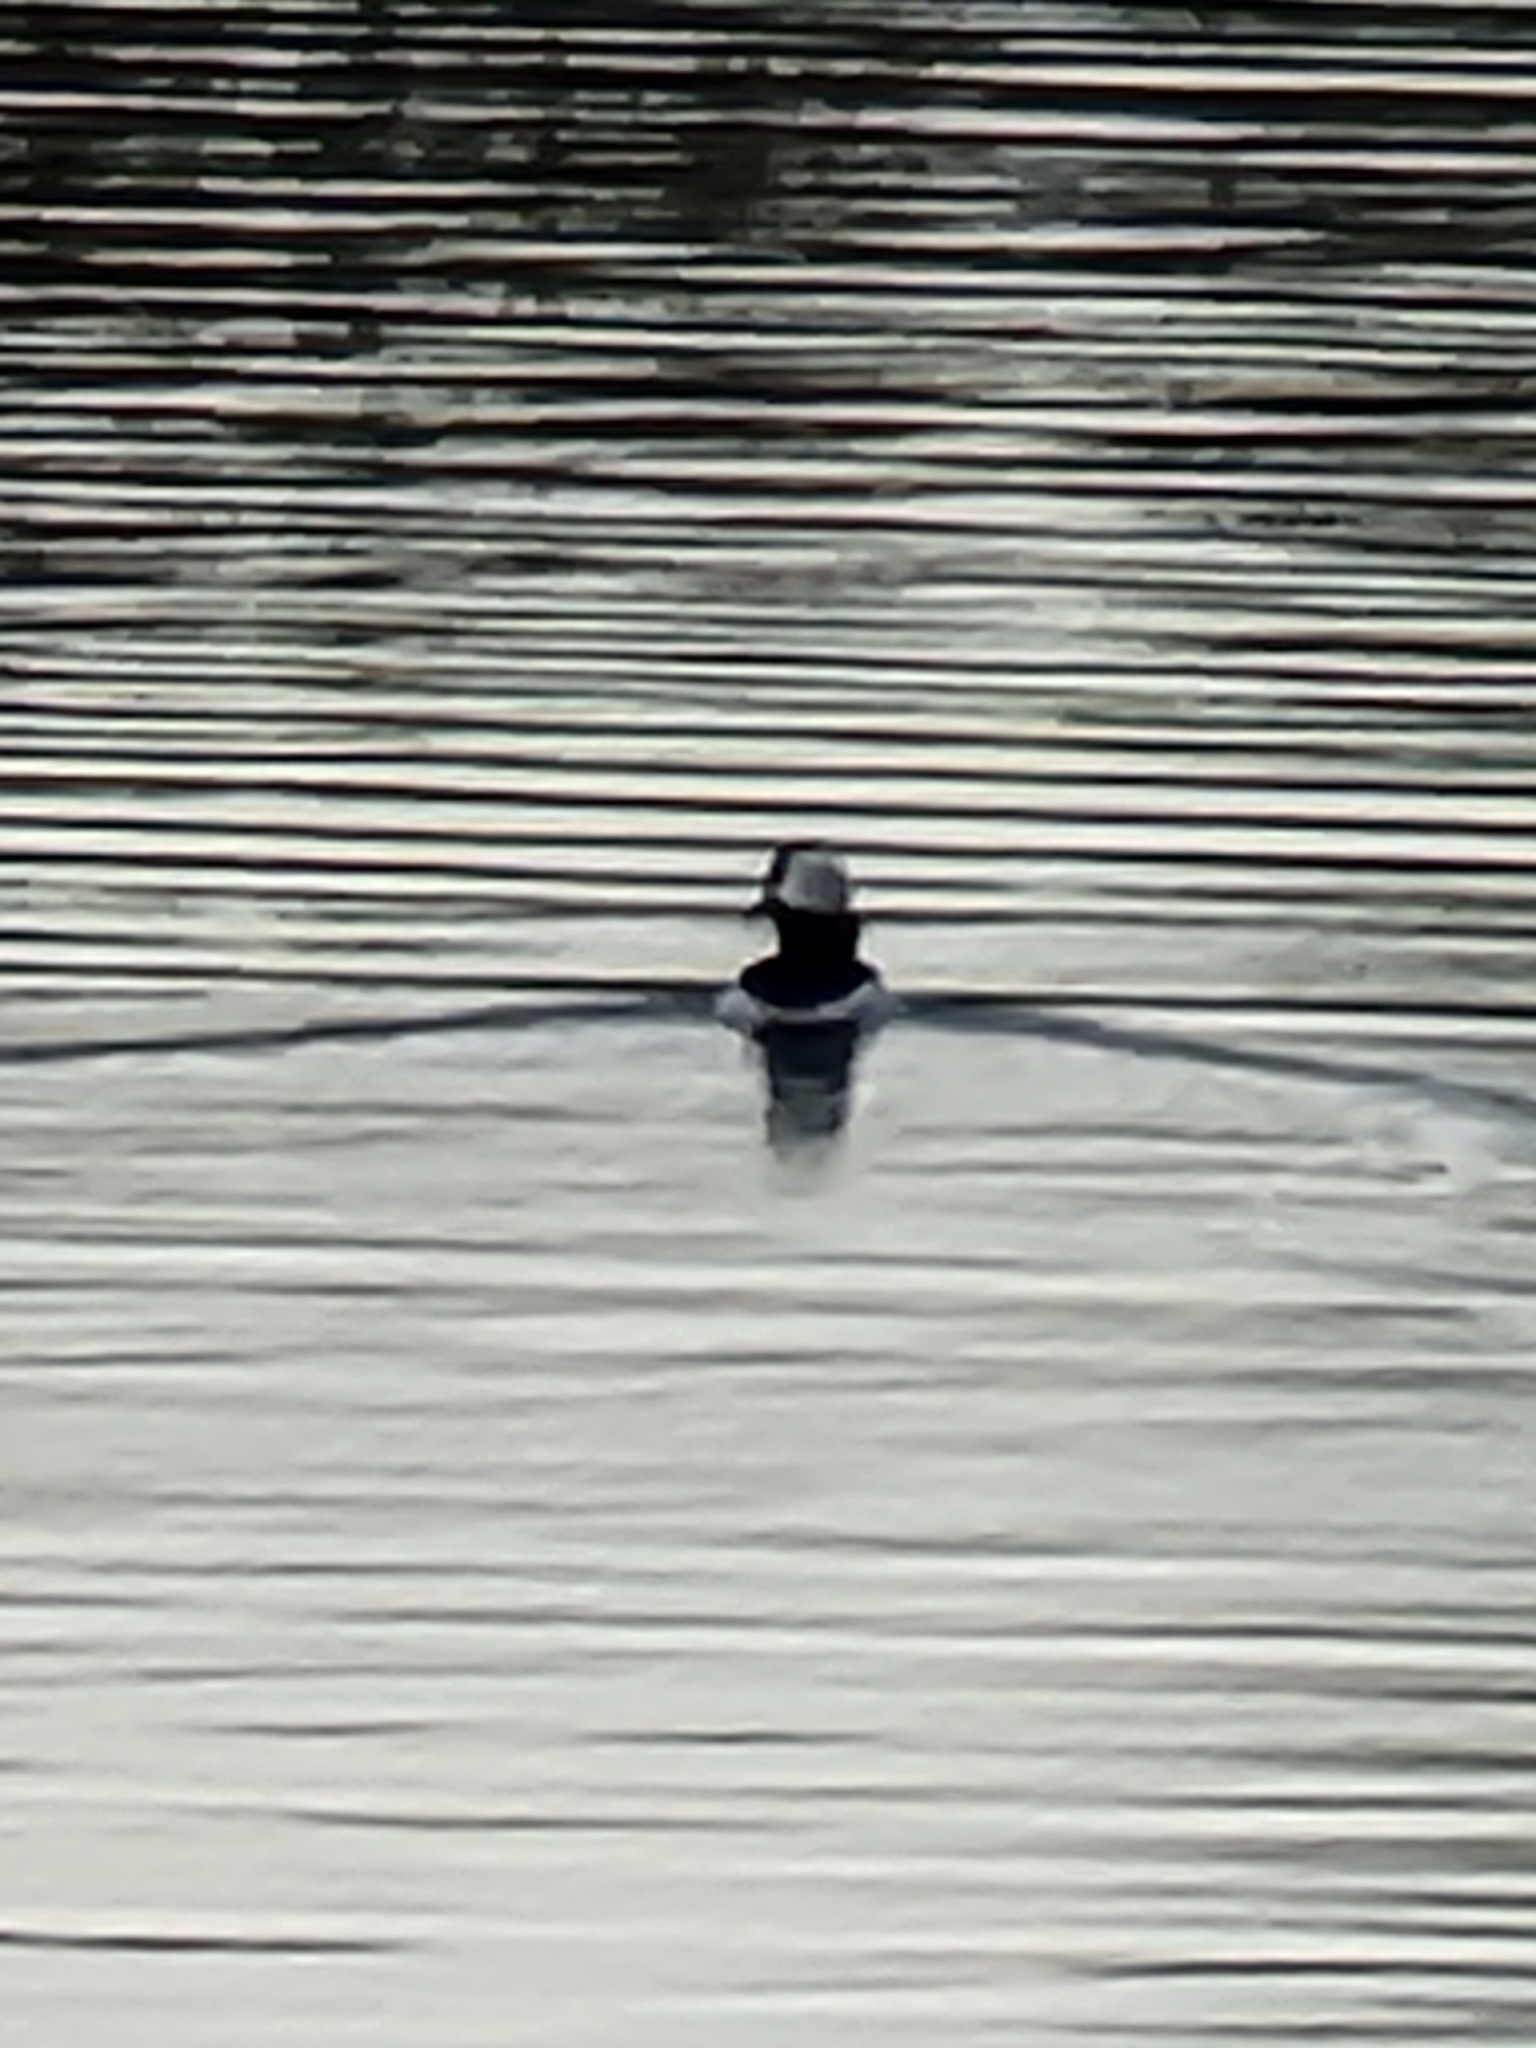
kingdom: Animalia
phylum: Chordata
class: Aves
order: Anseriformes
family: Anatidae
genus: Bucephala
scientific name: Bucephala albeola
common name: Bufflehead
